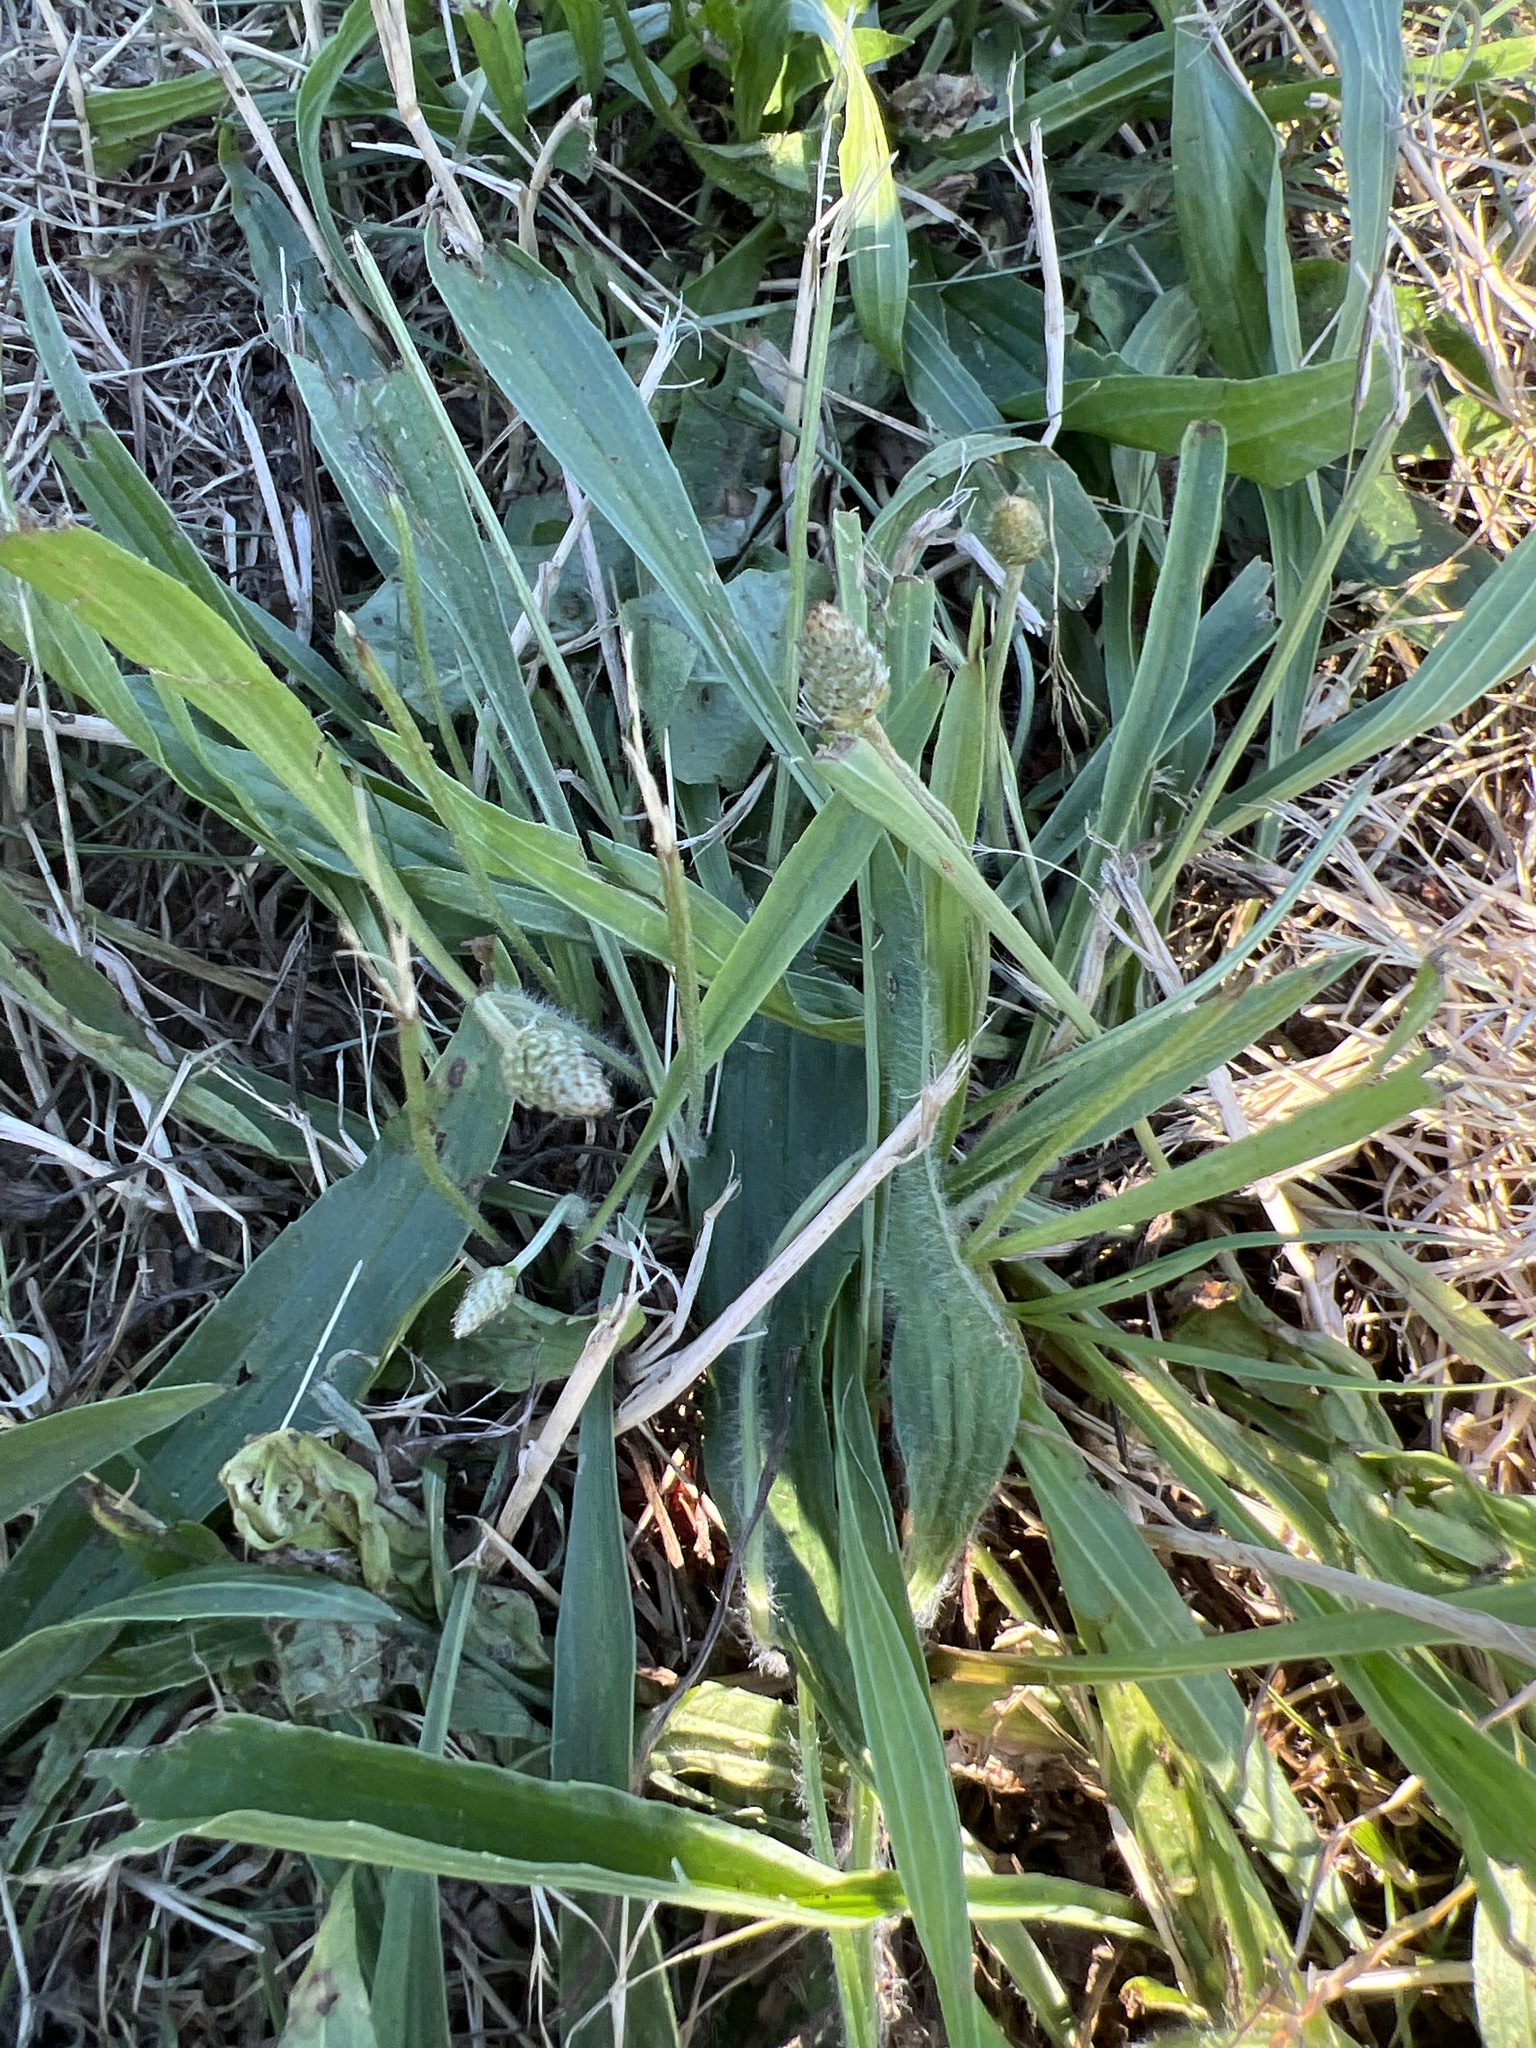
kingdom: Plantae
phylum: Tracheophyta
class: Magnoliopsida
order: Lamiales
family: Plantaginaceae
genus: Plantago
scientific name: Plantago lanceolata
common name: Ribwort plantain
